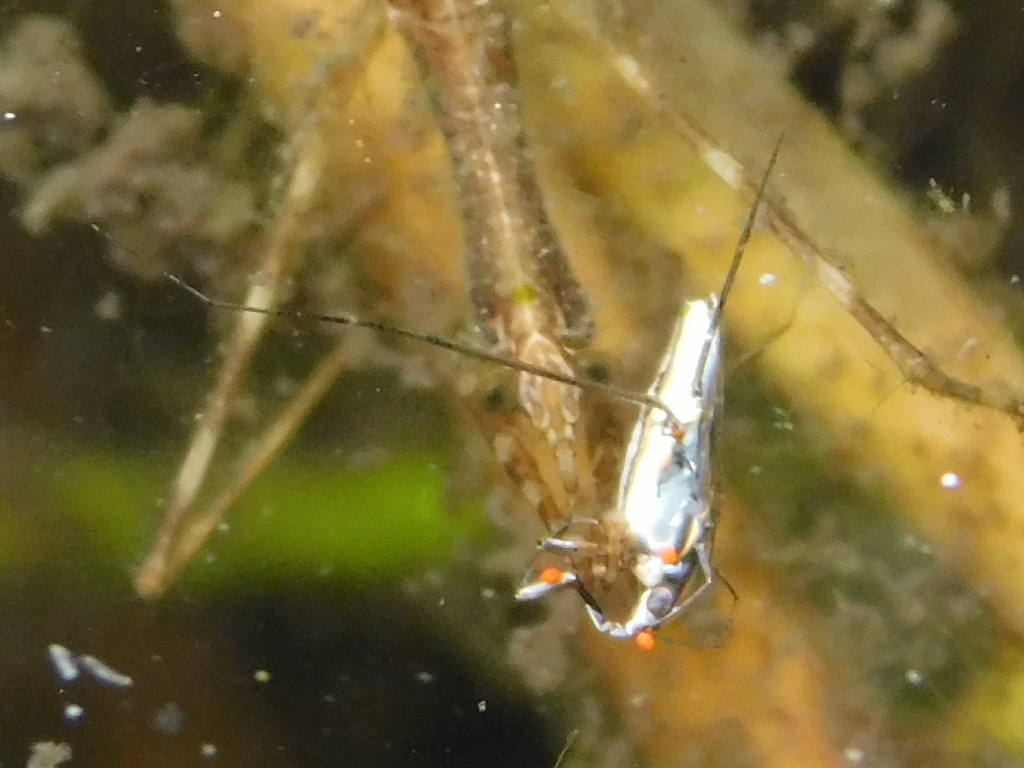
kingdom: Animalia
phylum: Arthropoda
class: Insecta
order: Hemiptera
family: Gerridae
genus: Neogerris
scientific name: Neogerris hesione
